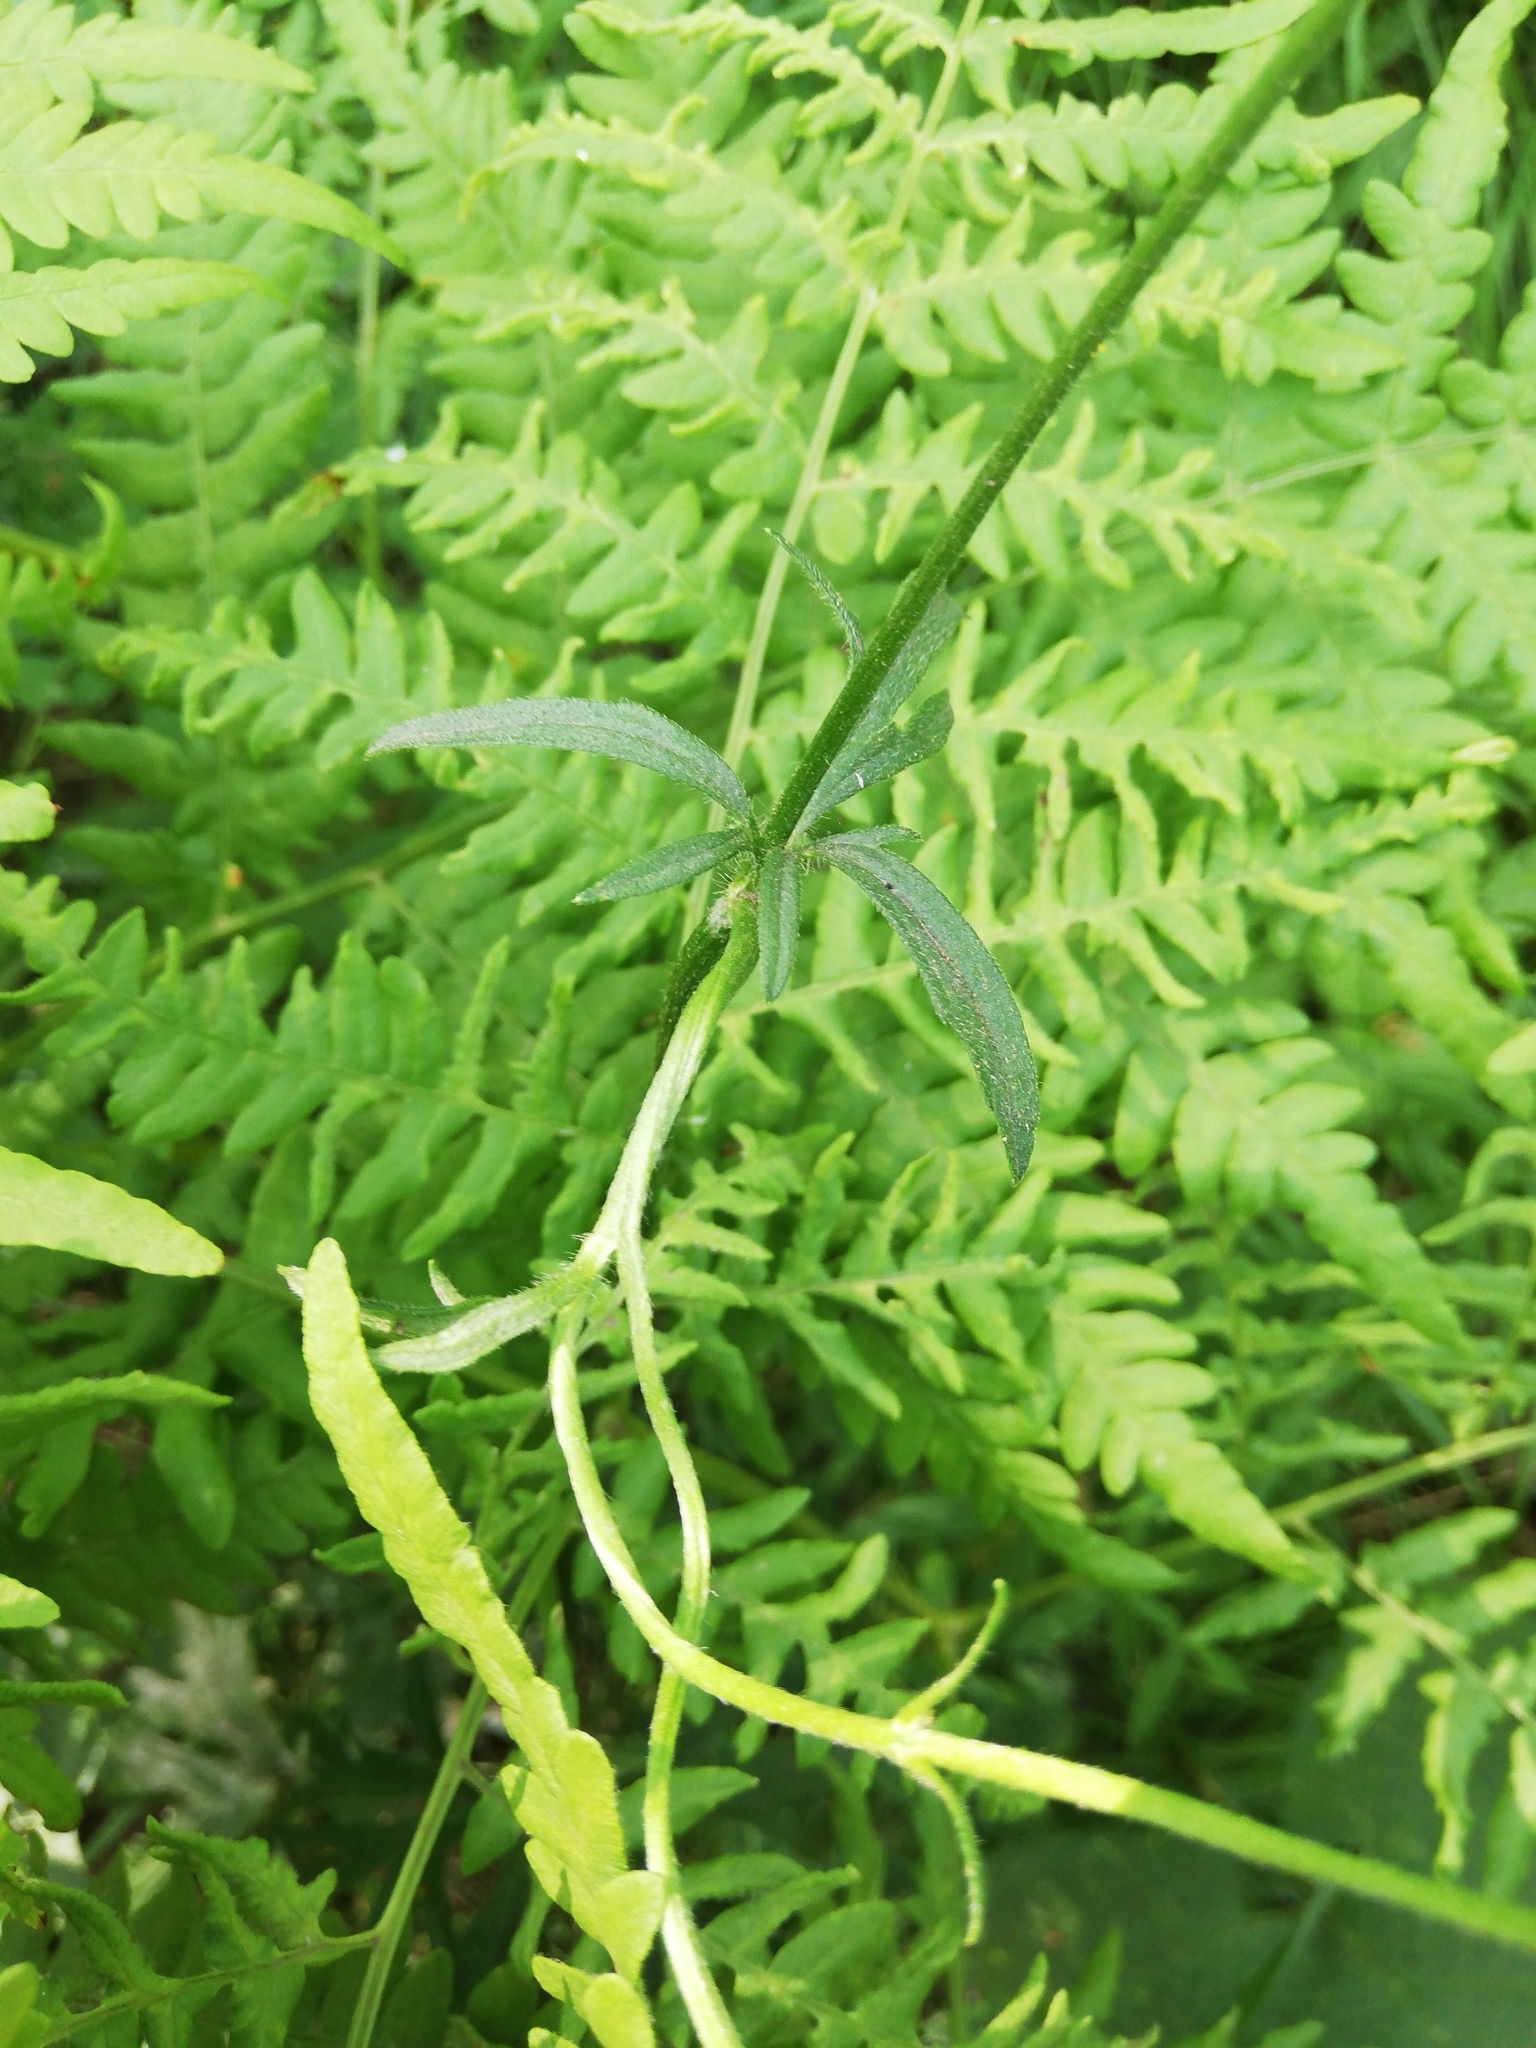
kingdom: Plantae
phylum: Tracheophyta
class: Magnoliopsida
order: Ranunculales
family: Ranunculaceae
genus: Ranunculus
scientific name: Ranunculus polyanthemos
